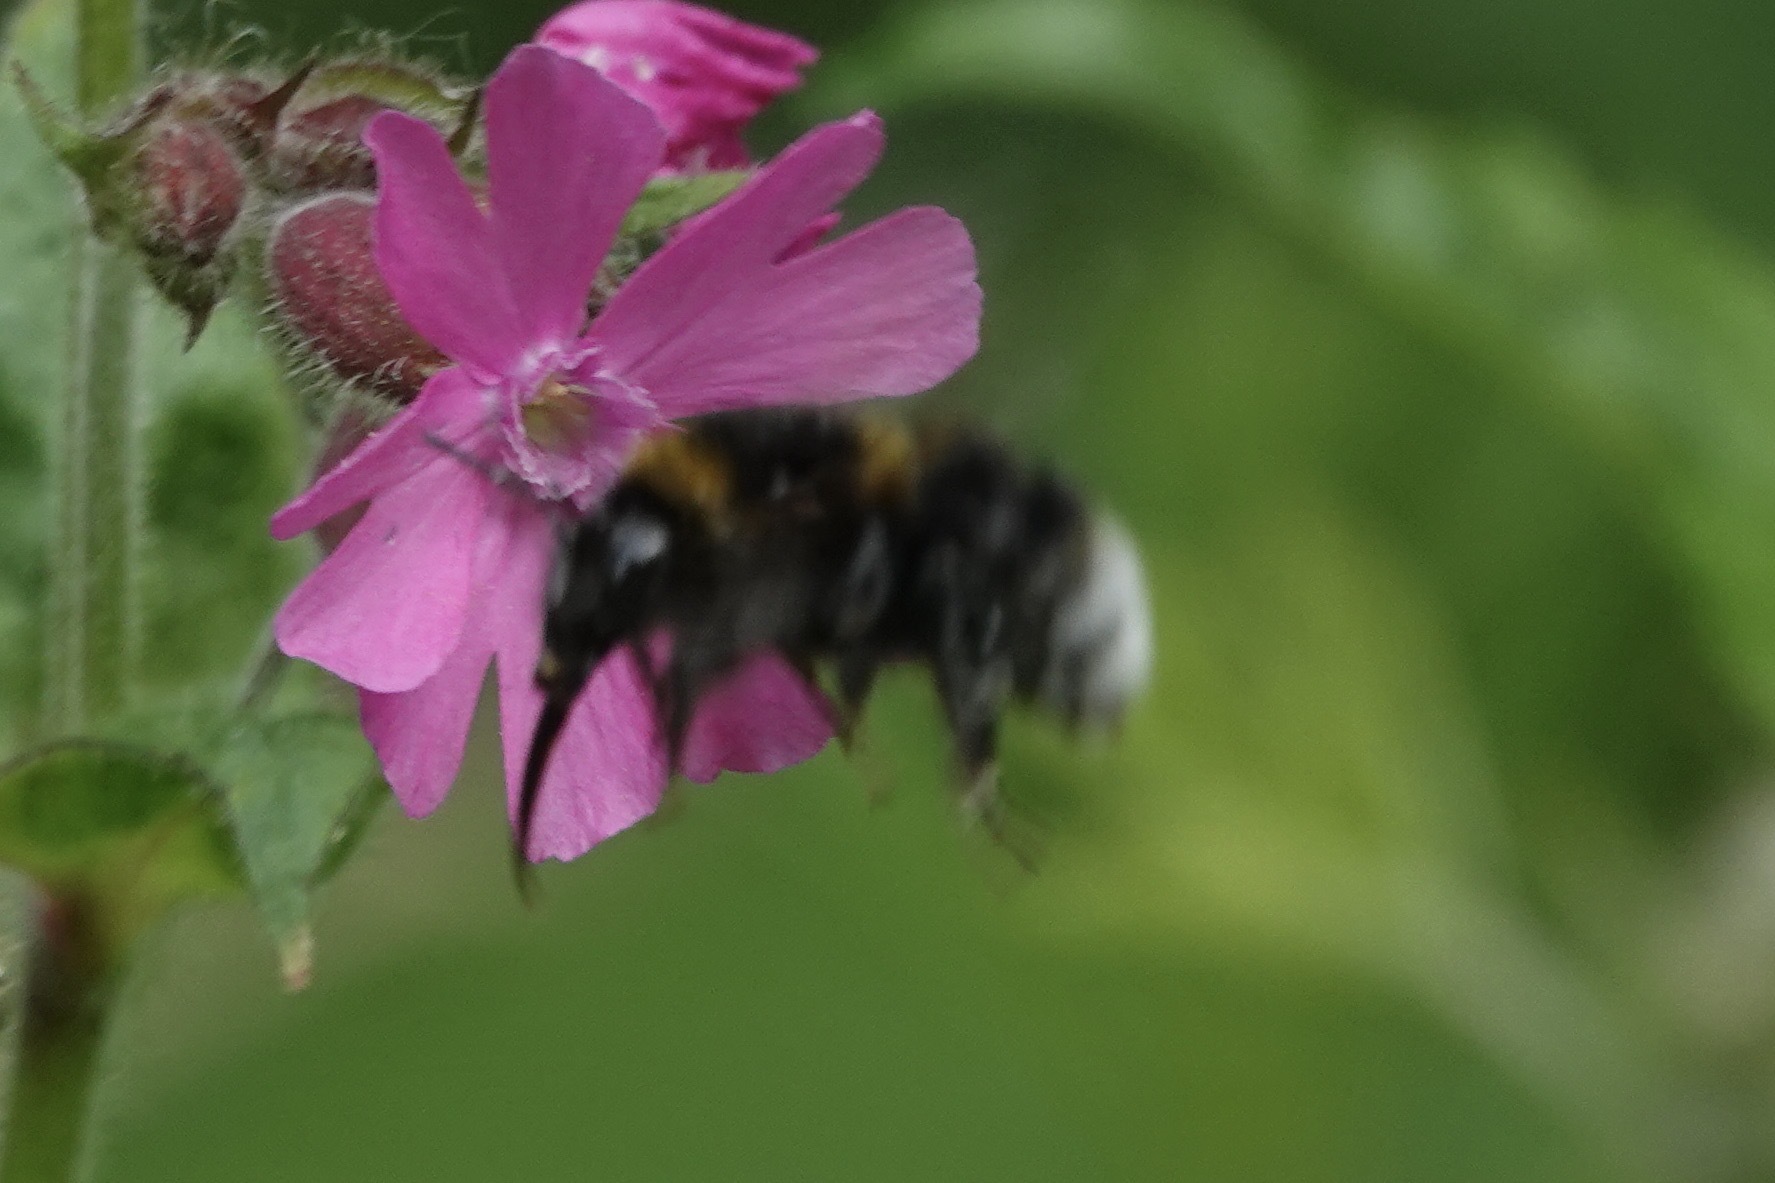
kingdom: Animalia
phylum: Arthropoda
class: Insecta
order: Hymenoptera
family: Apidae
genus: Bombus
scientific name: Bombus hortorum
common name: Garden bumblebee
